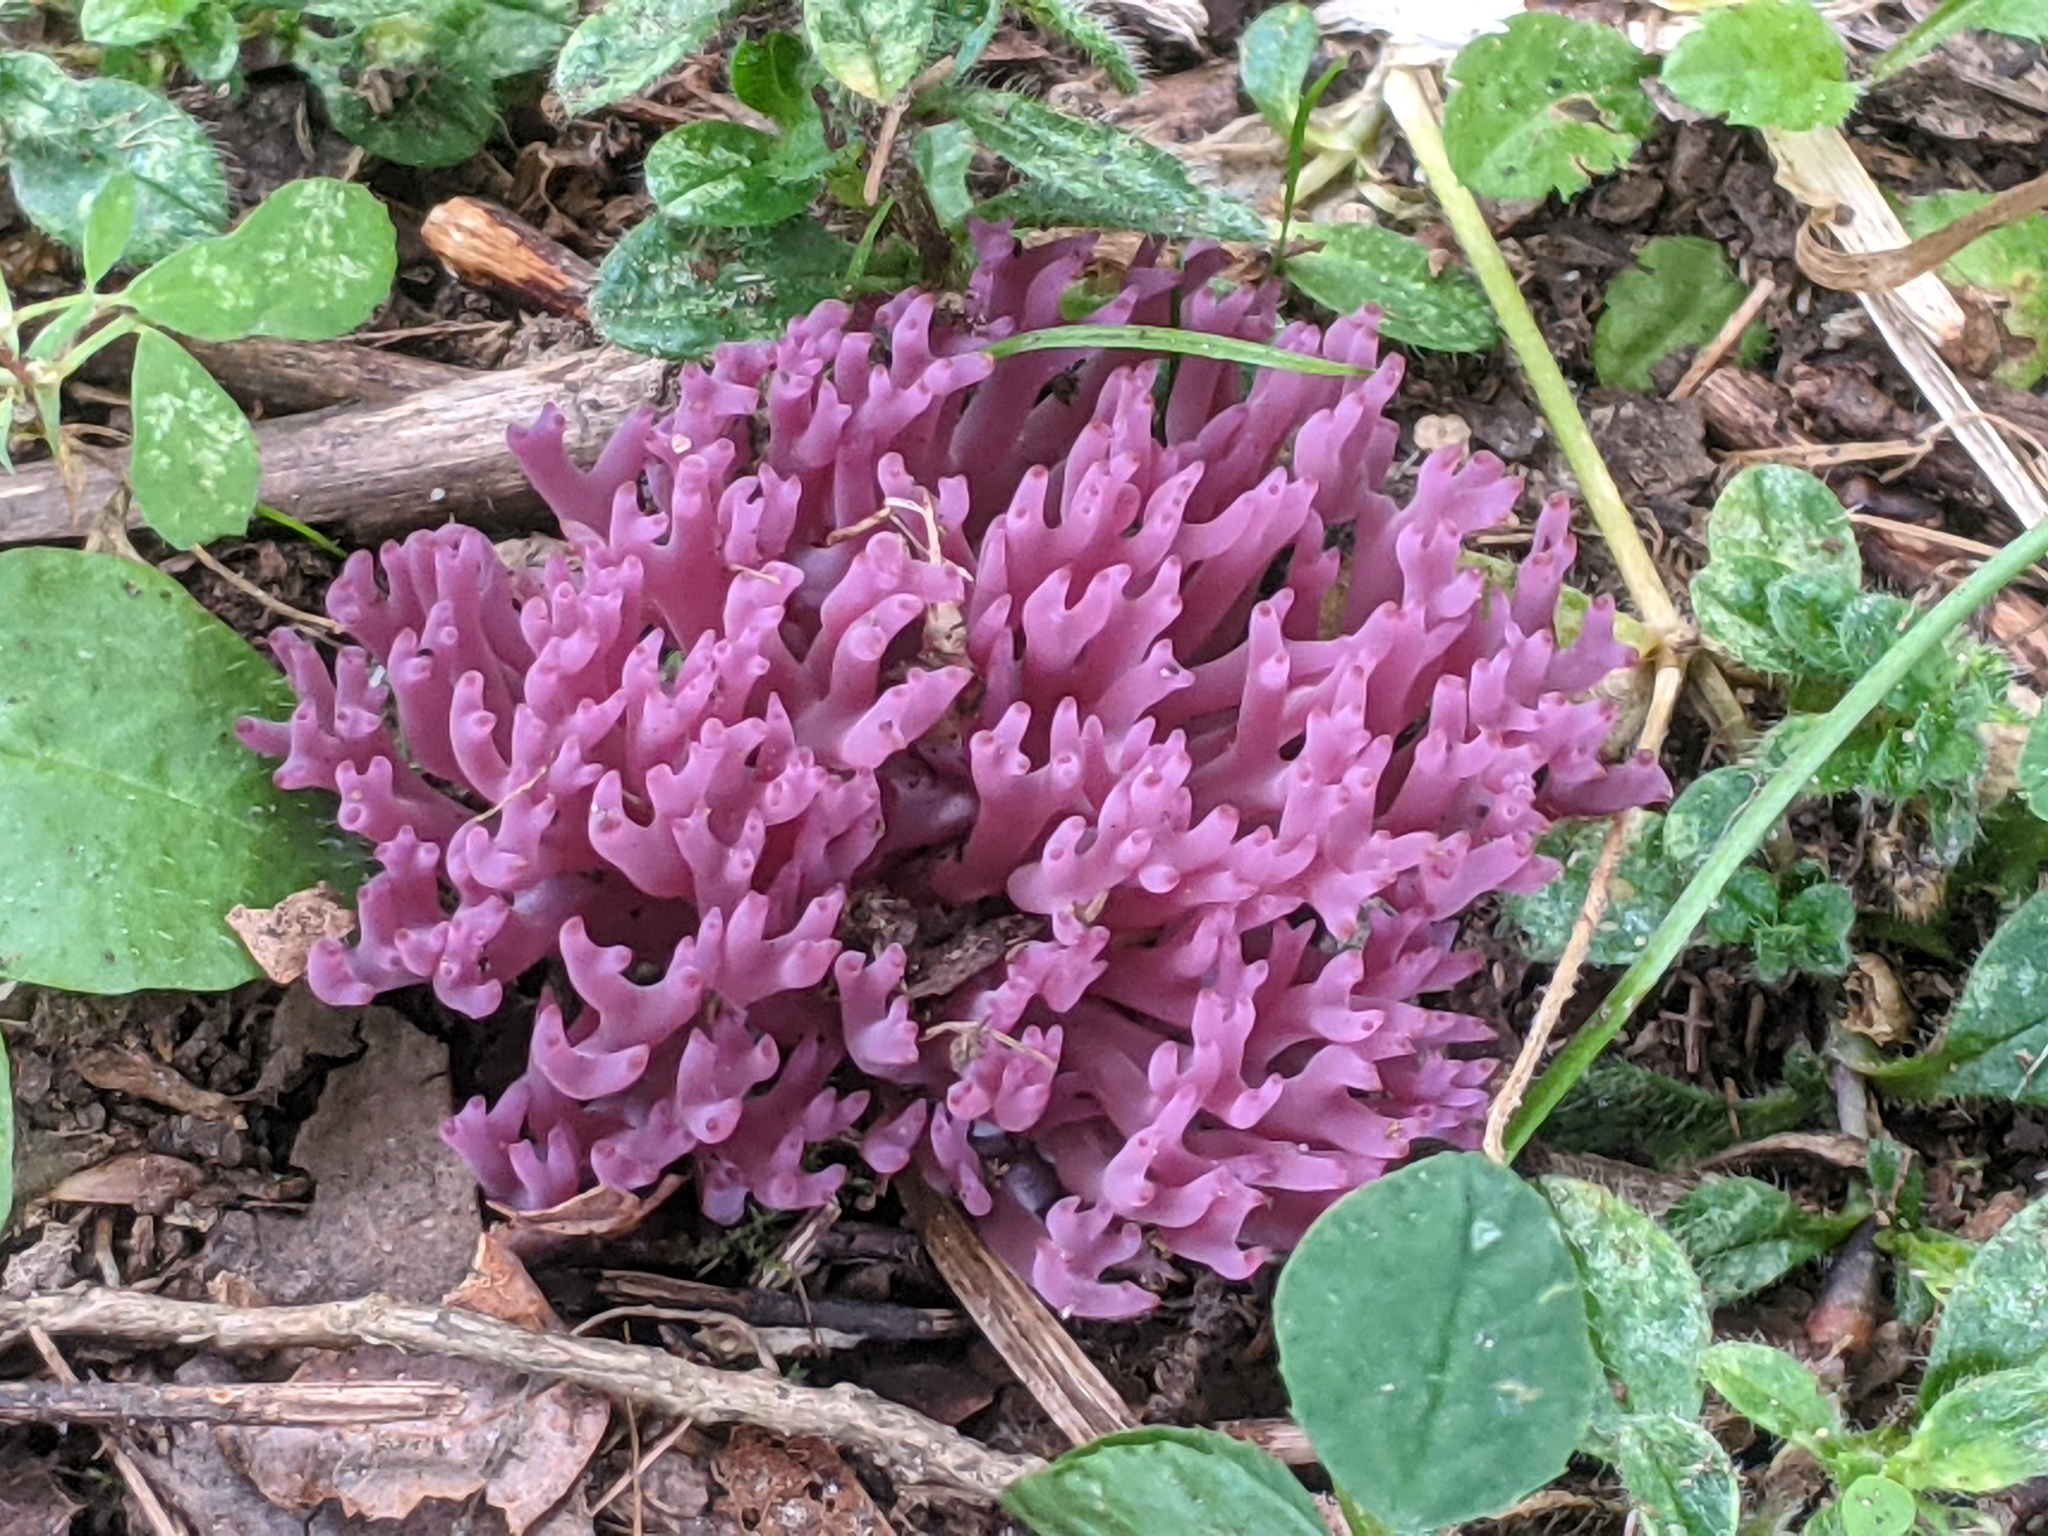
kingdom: Fungi
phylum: Basidiomycota
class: Agaricomycetes
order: Agaricales
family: Clavariaceae
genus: Clavaria
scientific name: Clavaria zollingeri
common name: Violet coral
